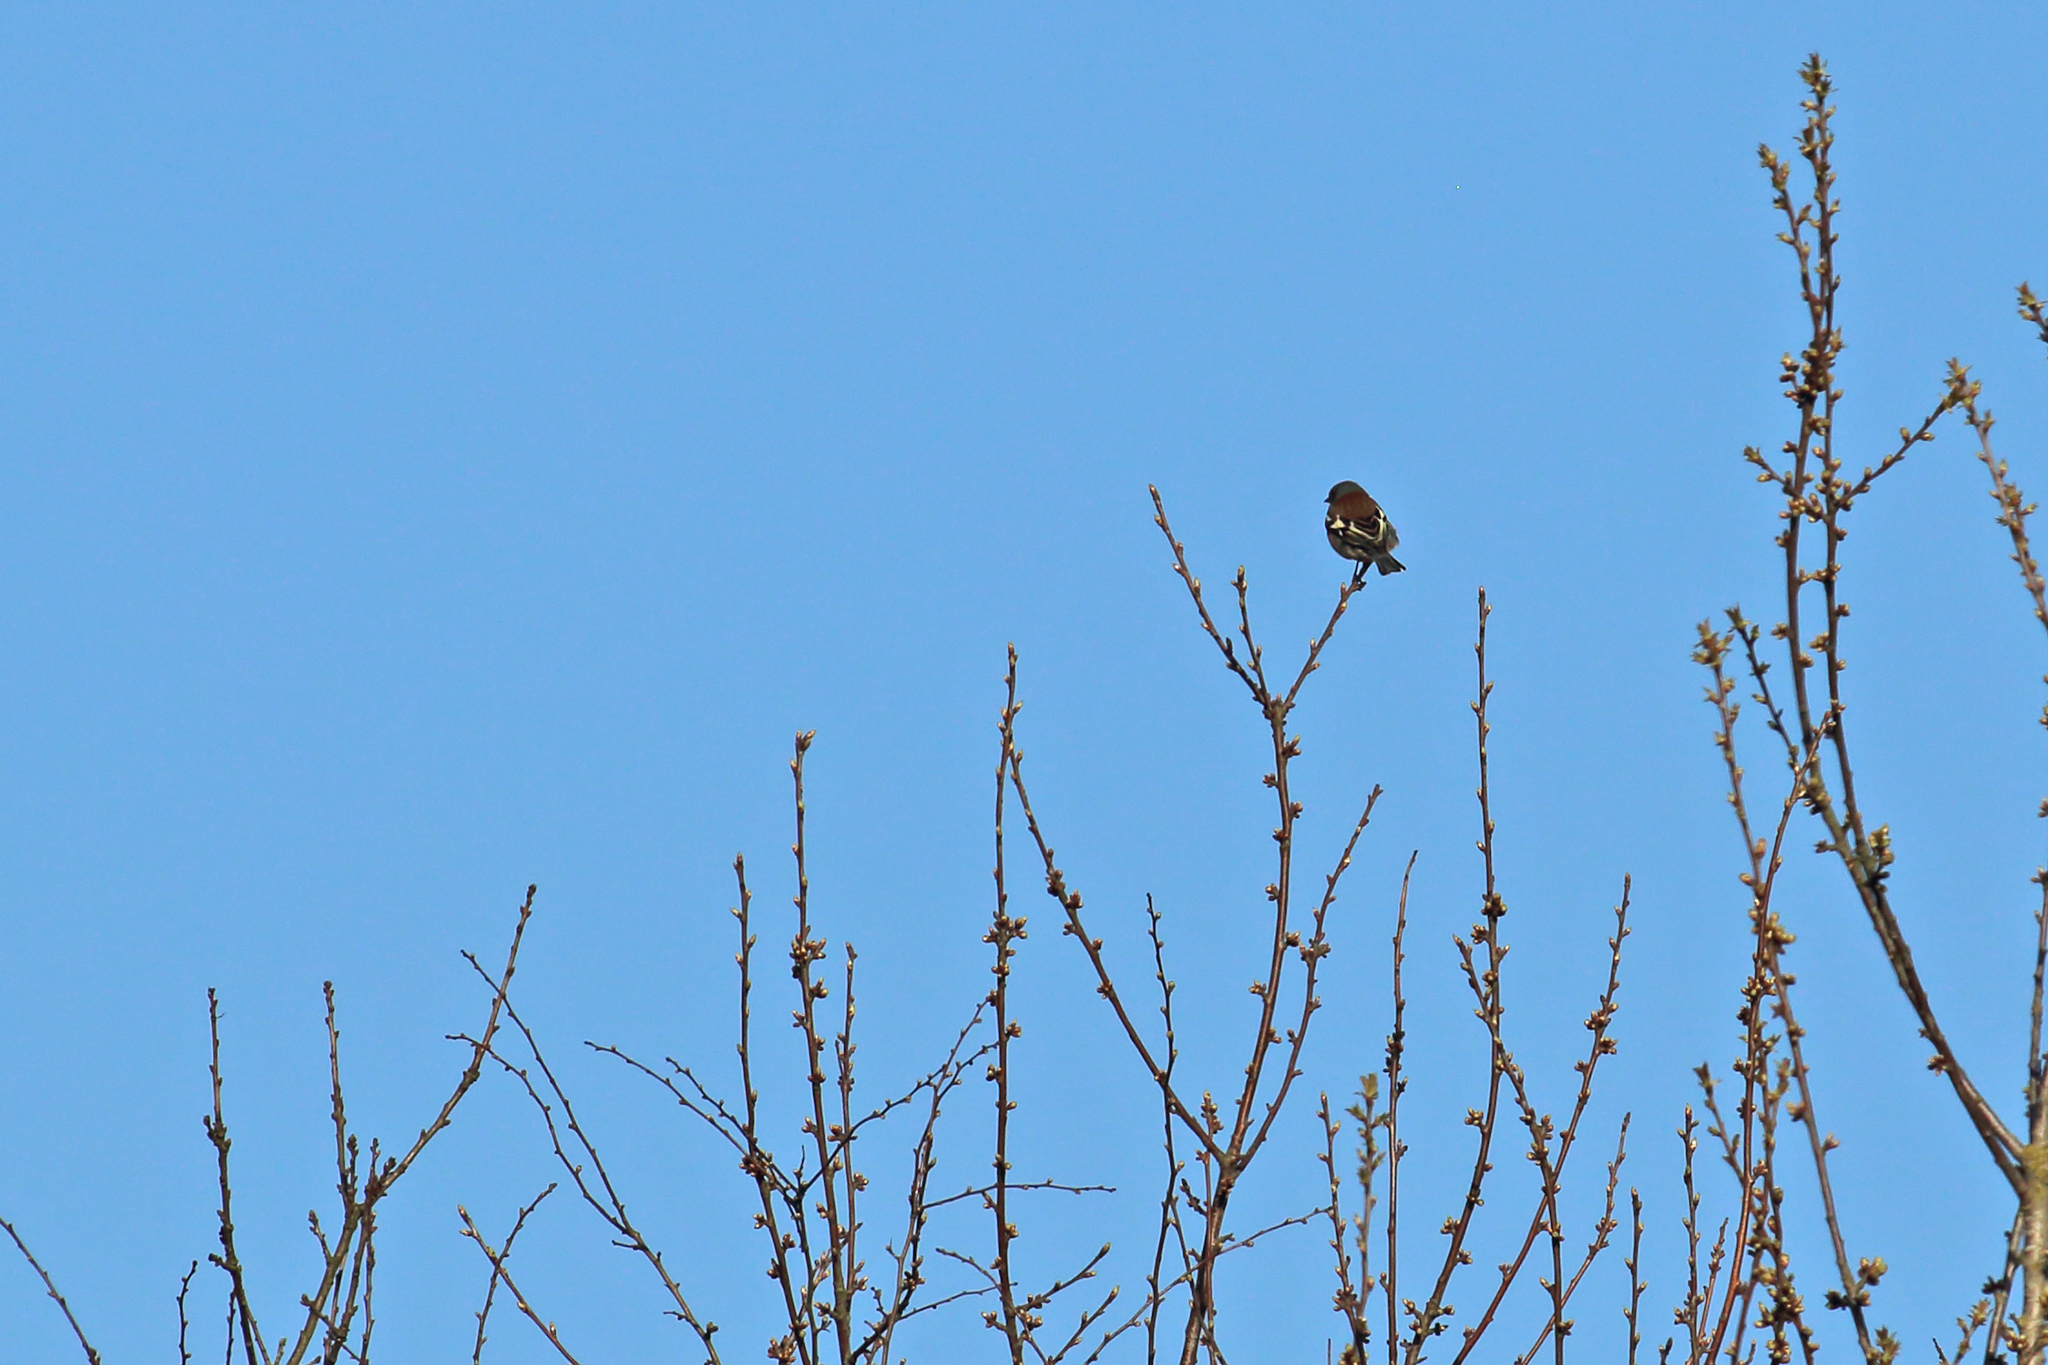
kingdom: Animalia
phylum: Chordata
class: Aves
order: Passeriformes
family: Fringillidae
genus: Fringilla
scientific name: Fringilla coelebs
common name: Common chaffinch
